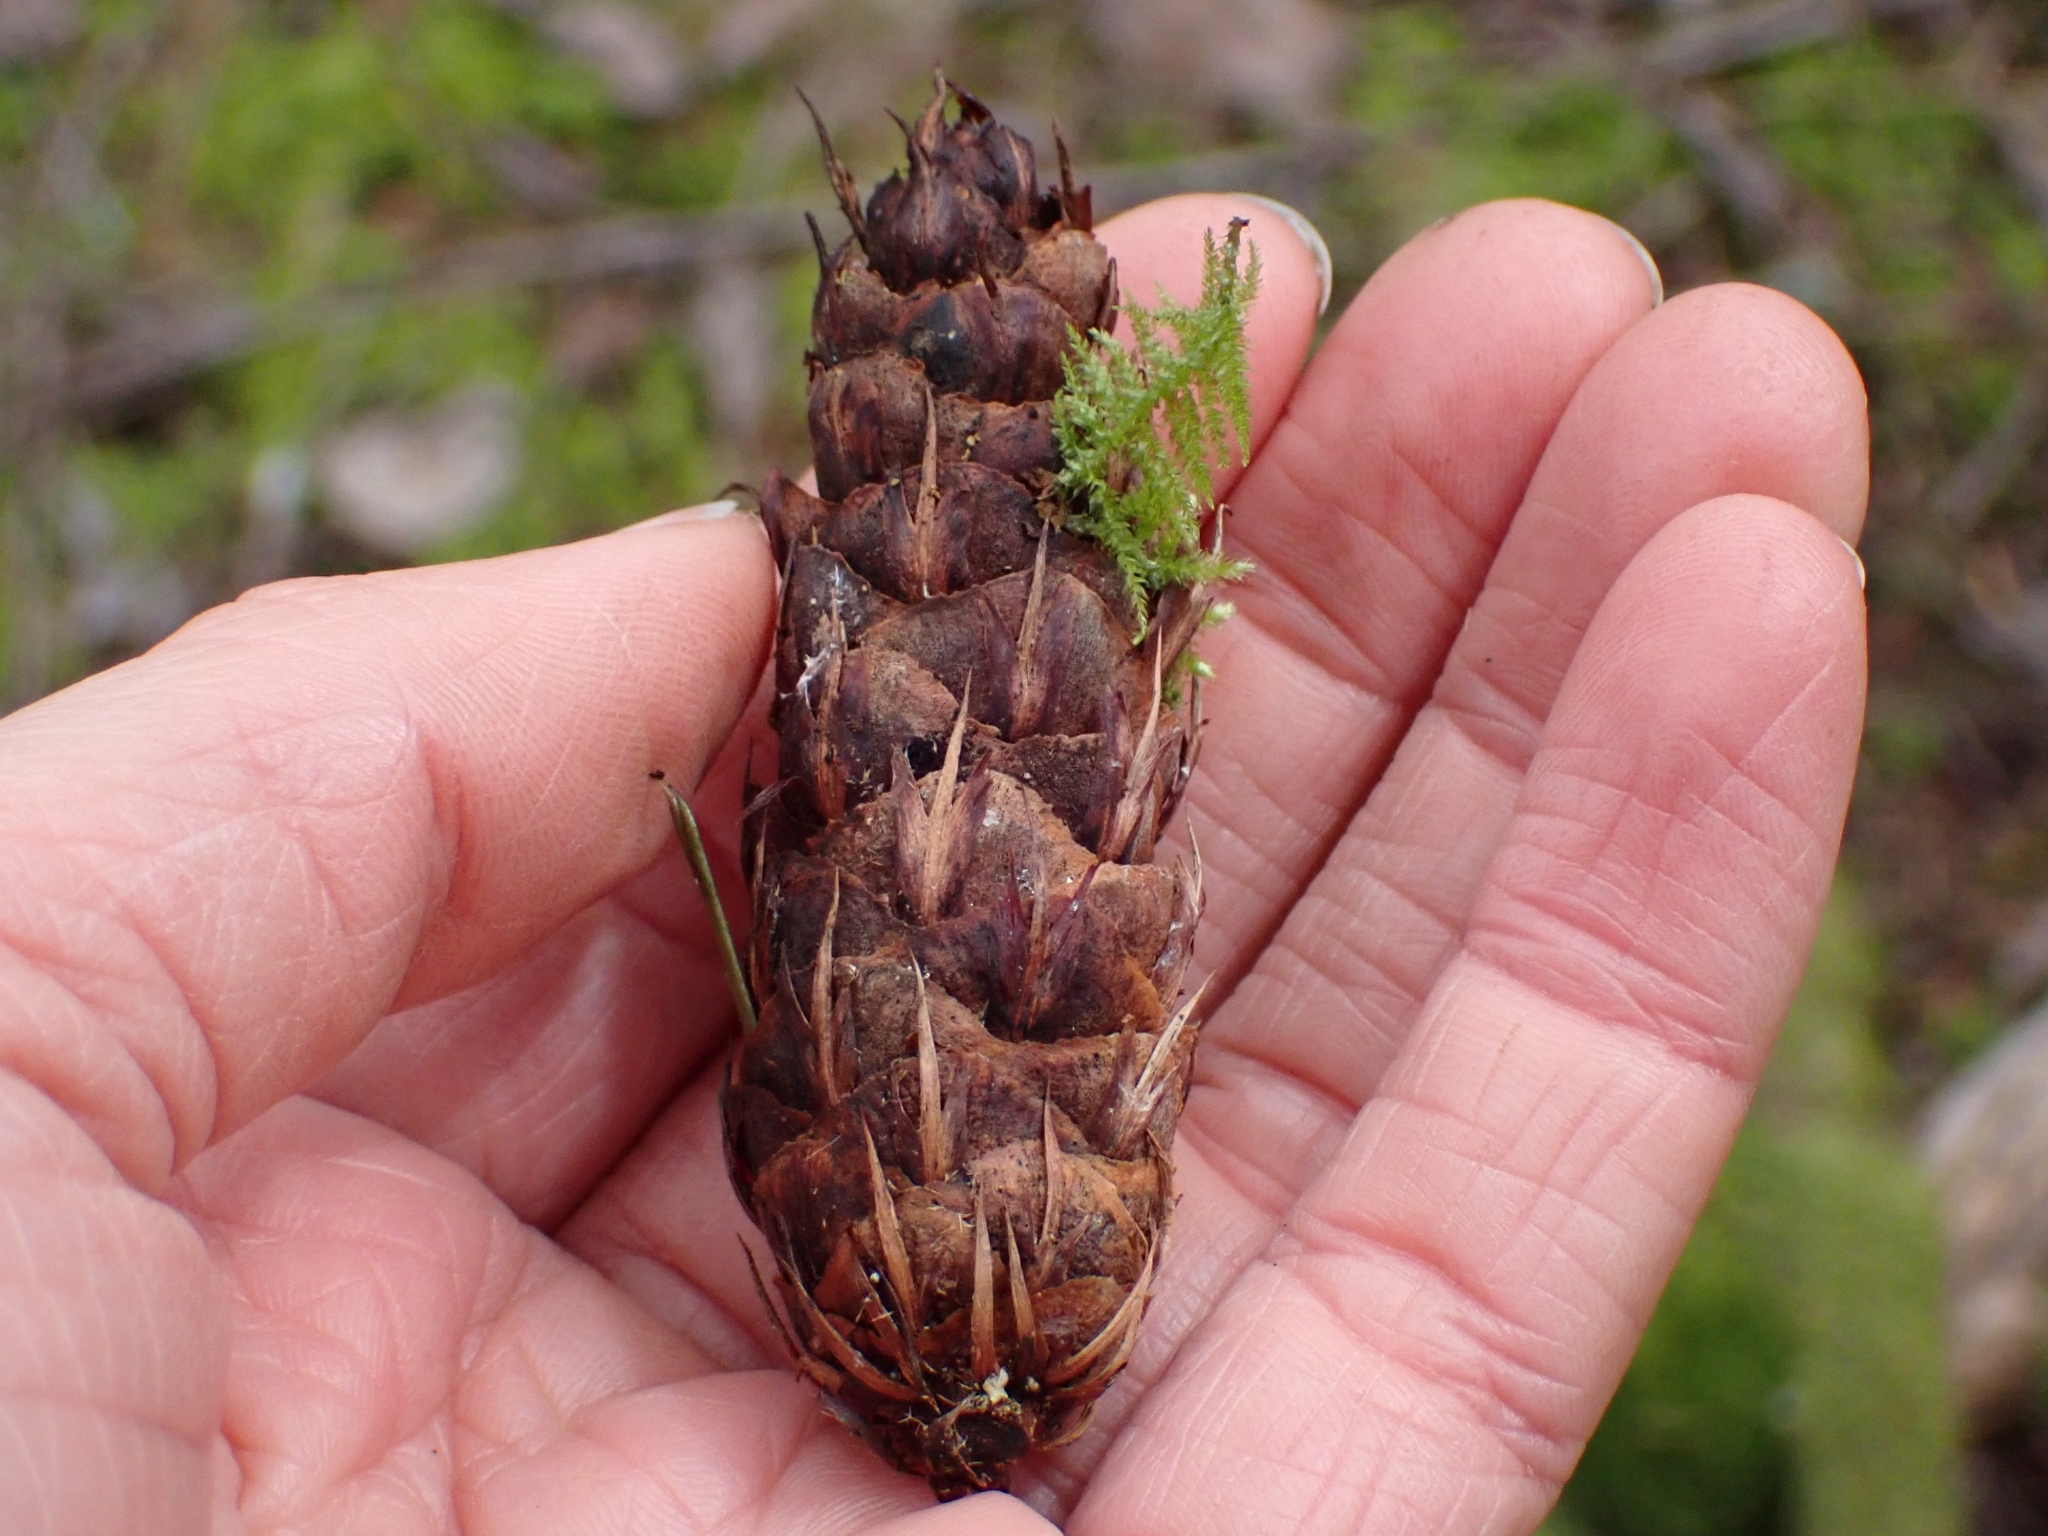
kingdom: Plantae
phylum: Tracheophyta
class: Pinopsida
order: Pinales
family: Pinaceae
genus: Pseudotsuga
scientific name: Pseudotsuga menziesii
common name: Douglas fir
